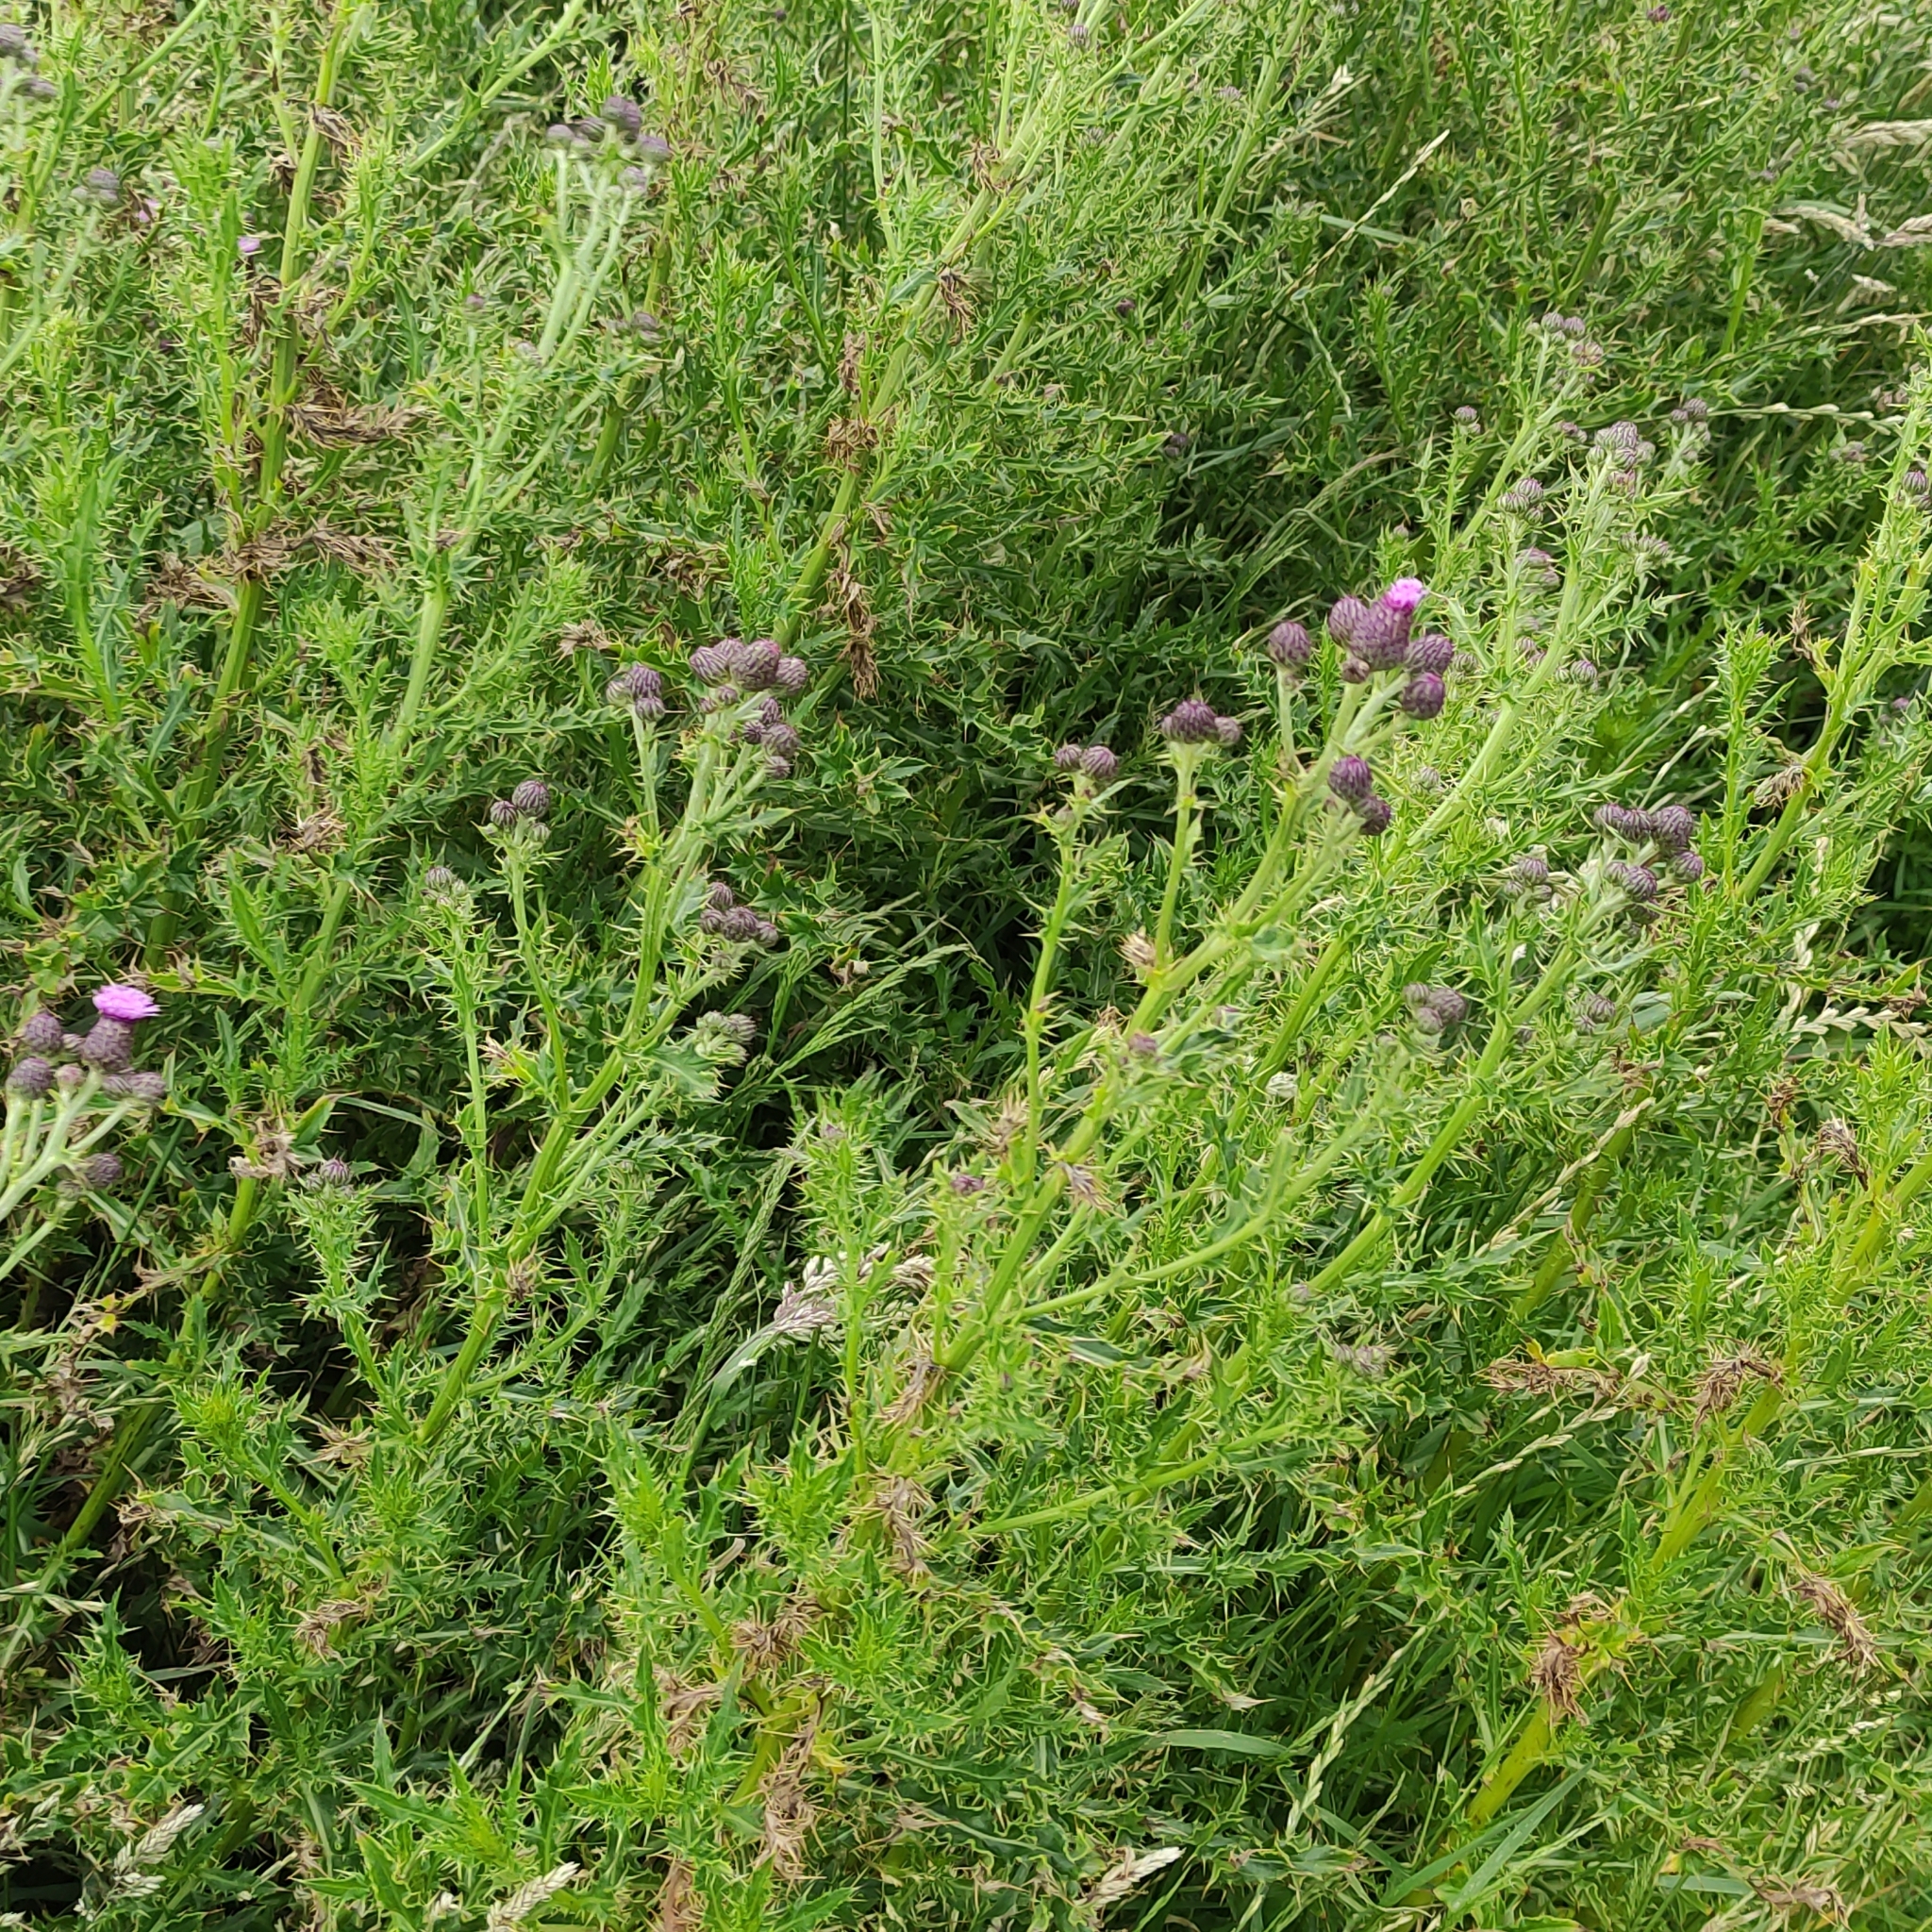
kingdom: Plantae
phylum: Tracheophyta
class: Magnoliopsida
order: Asterales
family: Asteraceae
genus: Cirsium
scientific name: Cirsium arvense
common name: Creeping thistle
